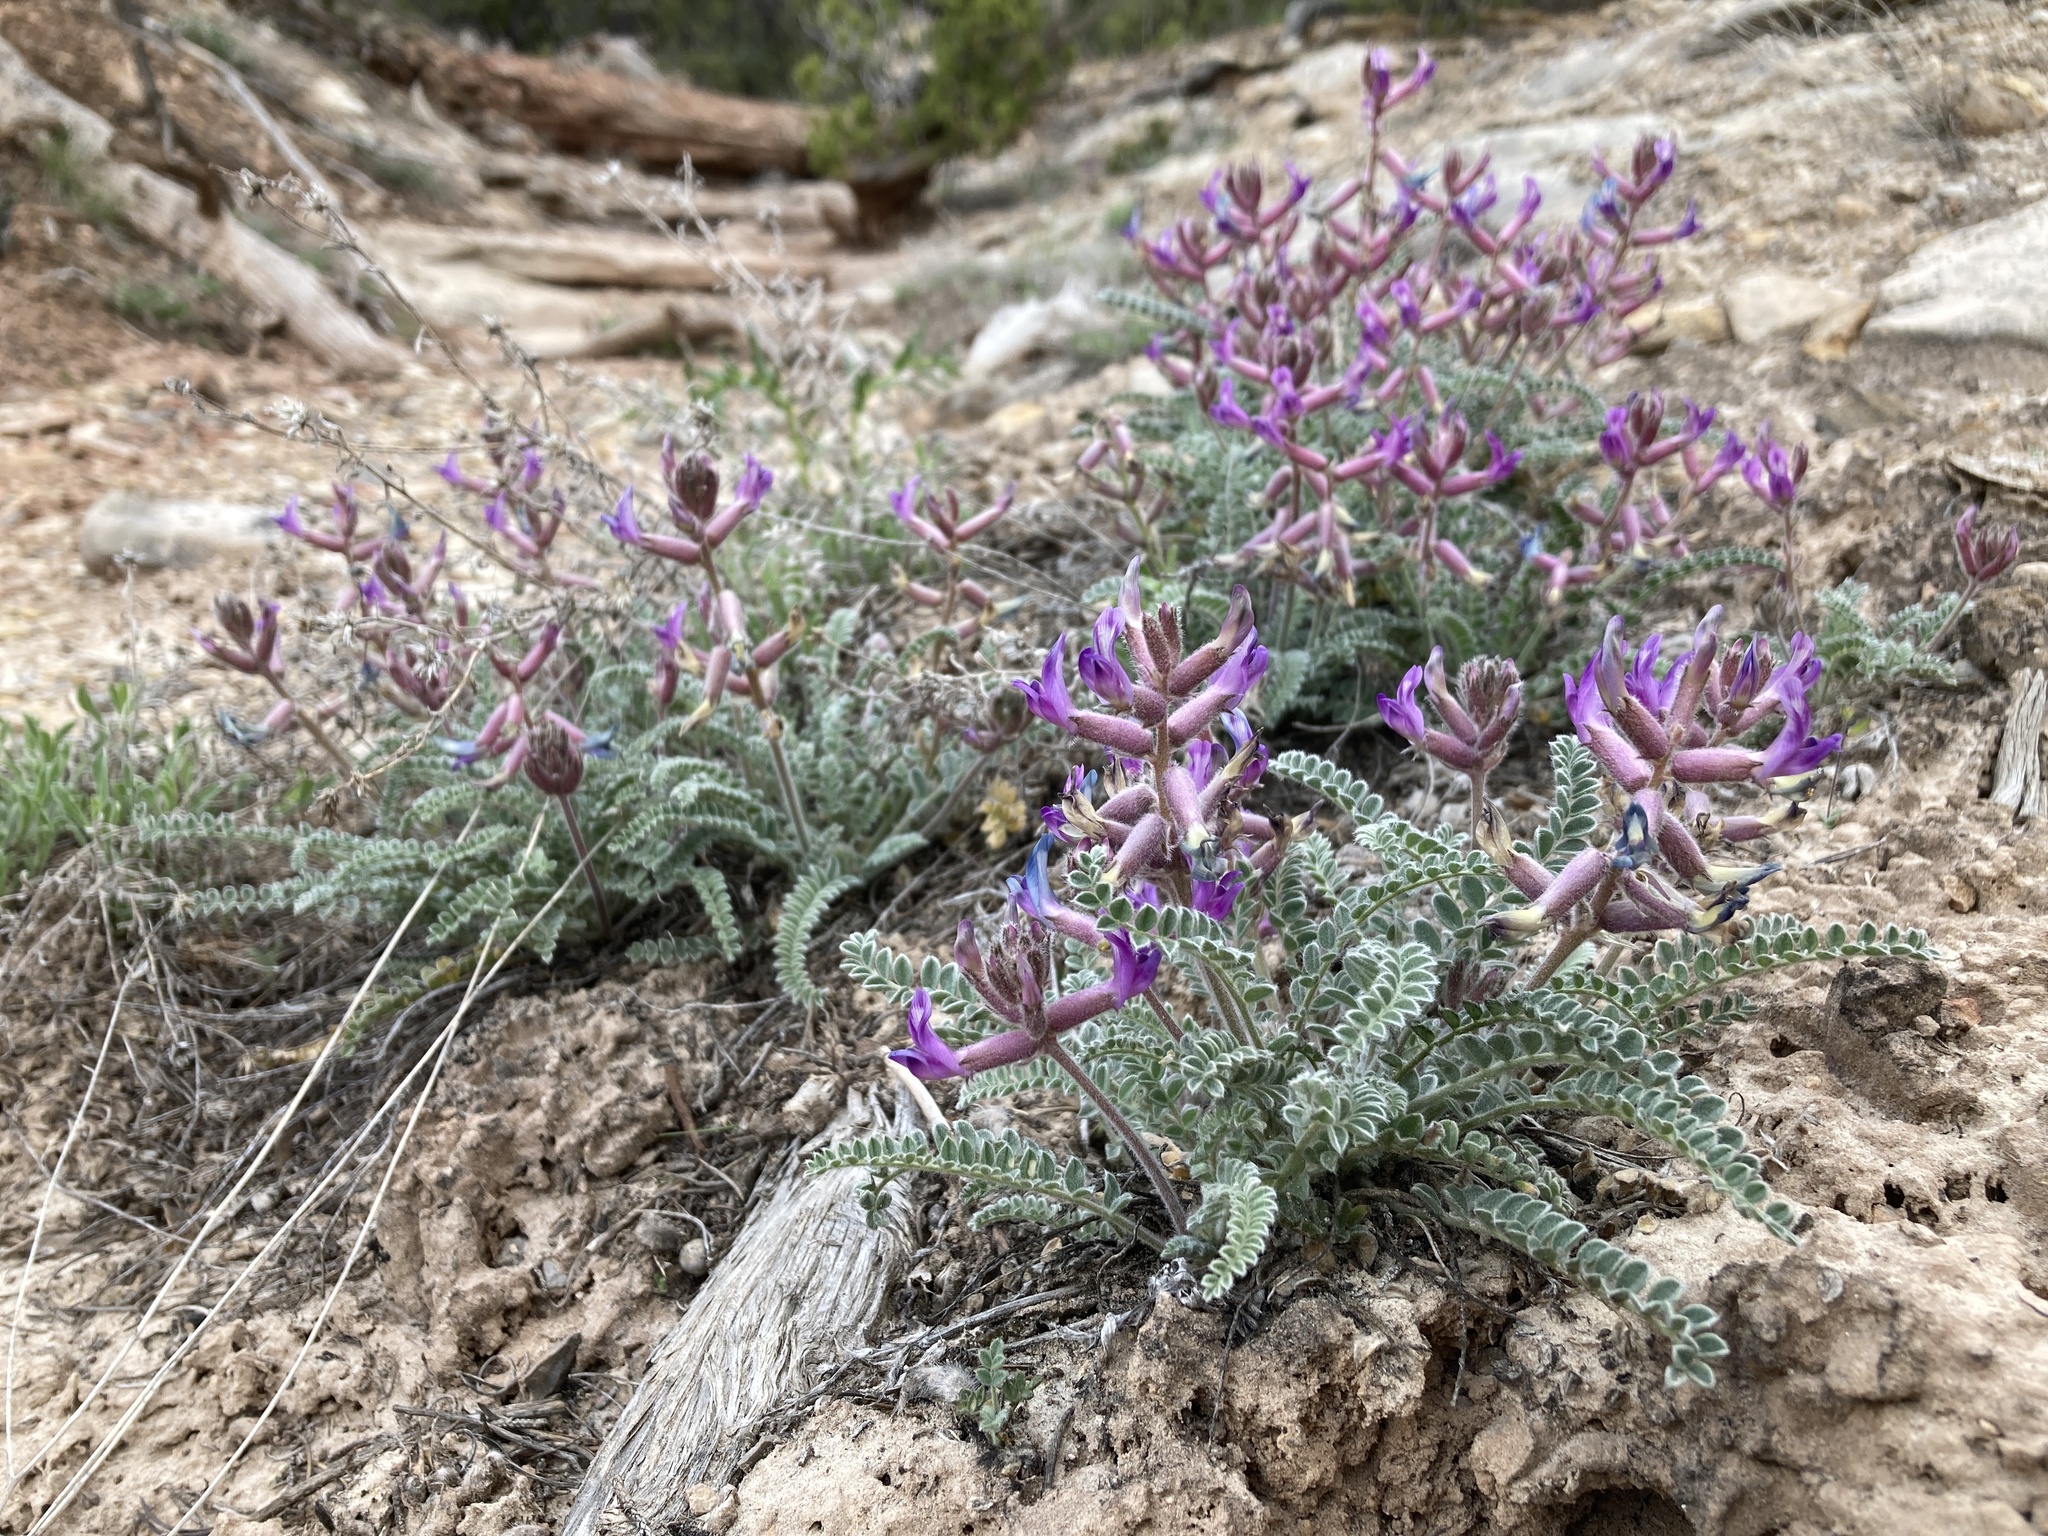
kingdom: Plantae
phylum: Tracheophyta
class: Magnoliopsida
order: Fabales
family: Fabaceae
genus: Astragalus
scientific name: Astragalus mollissimus
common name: Woolly locoweed
